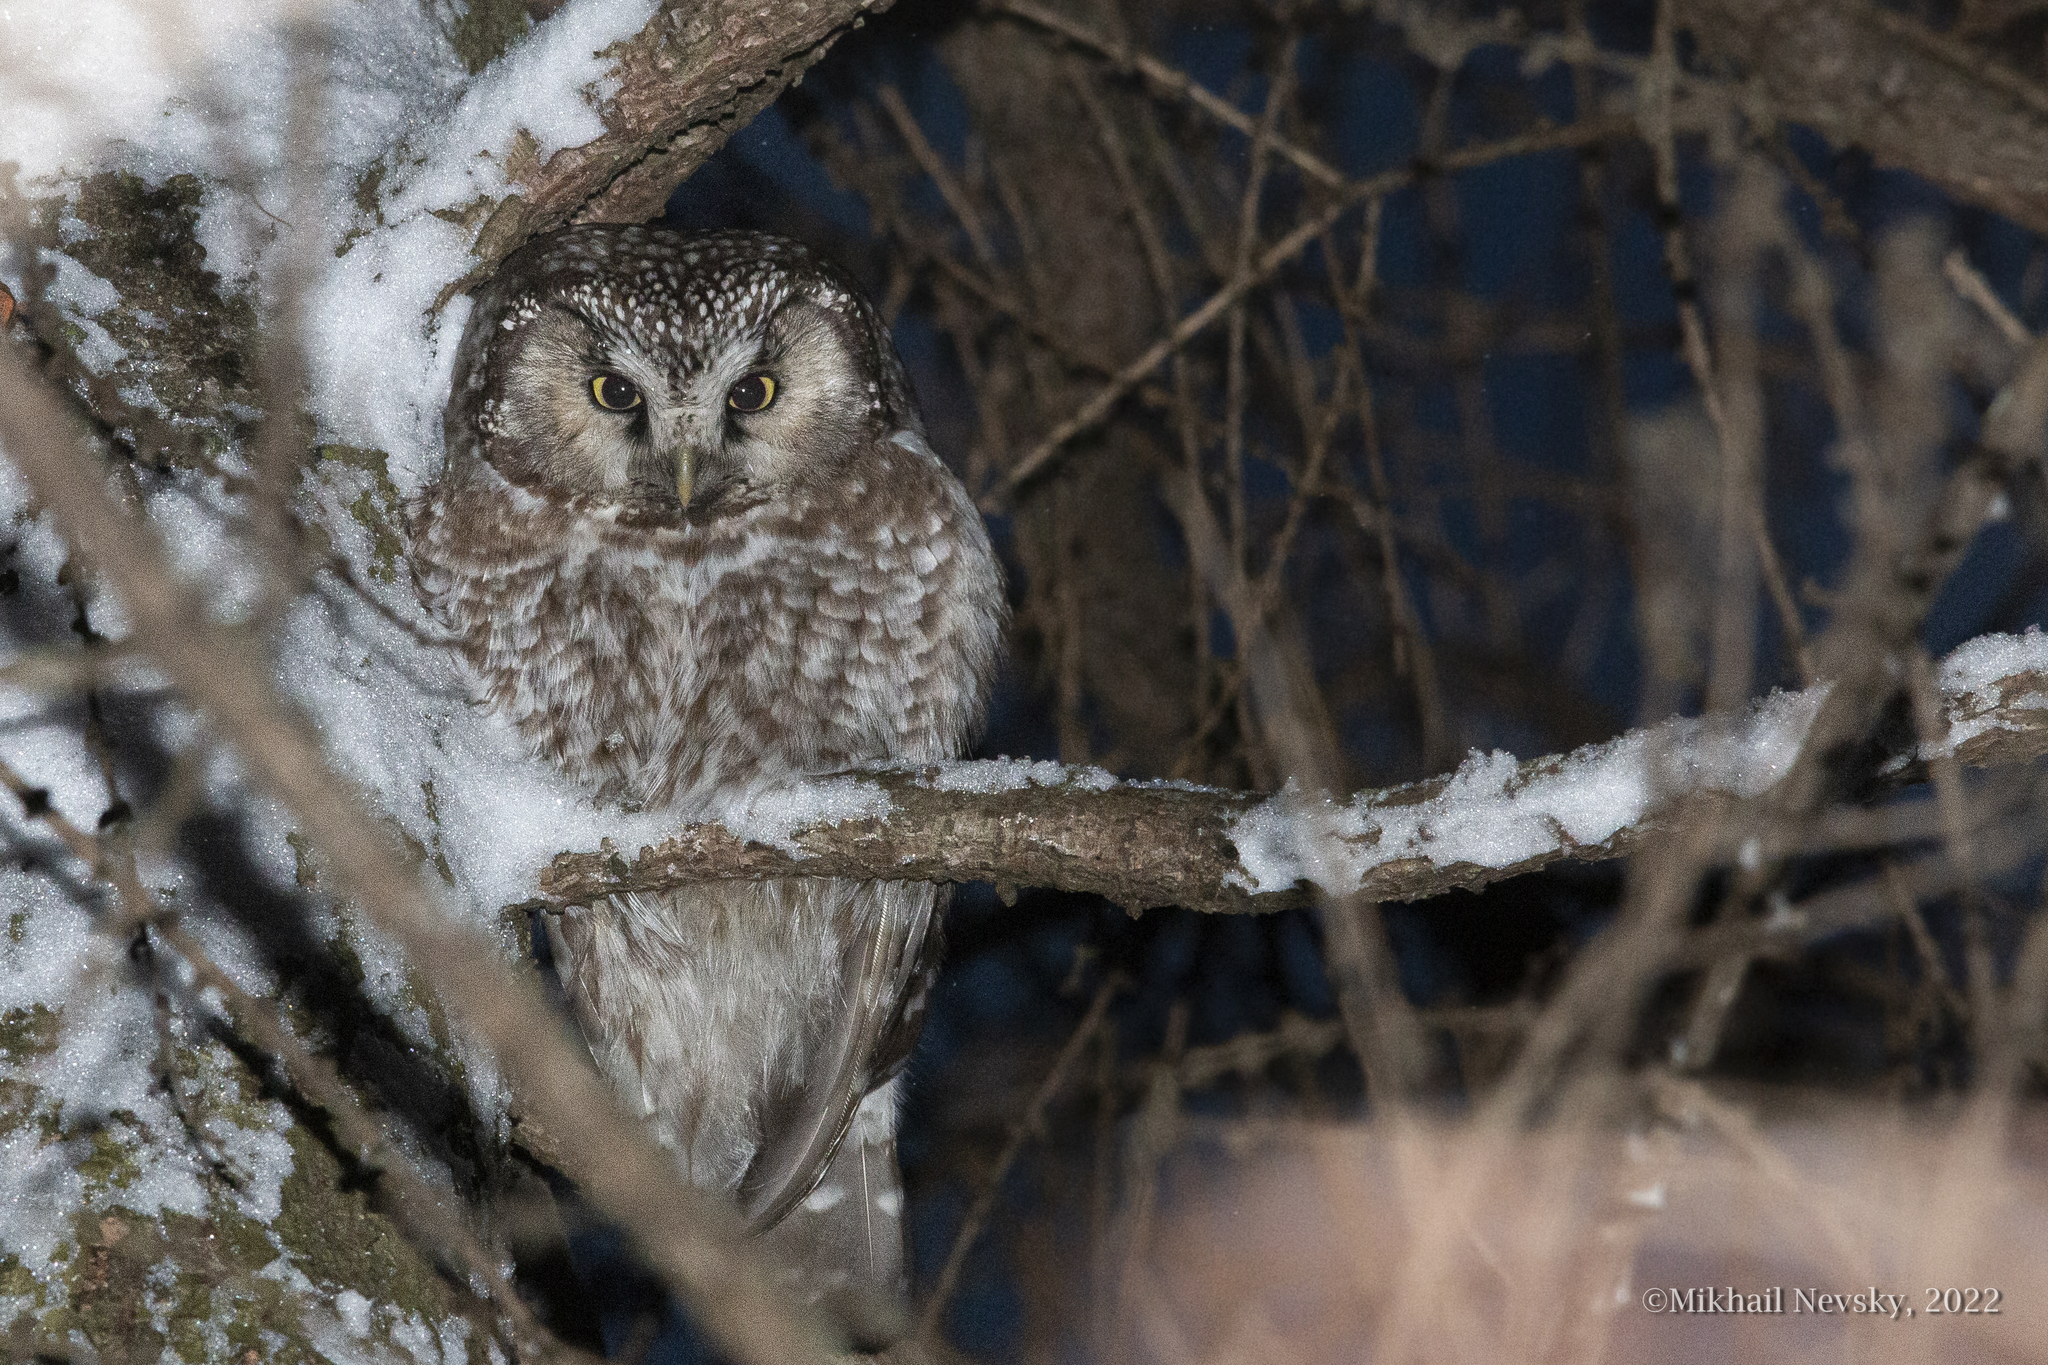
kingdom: Animalia
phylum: Chordata
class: Aves
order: Strigiformes
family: Strigidae
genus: Aegolius
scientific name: Aegolius funereus
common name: Boreal owl
